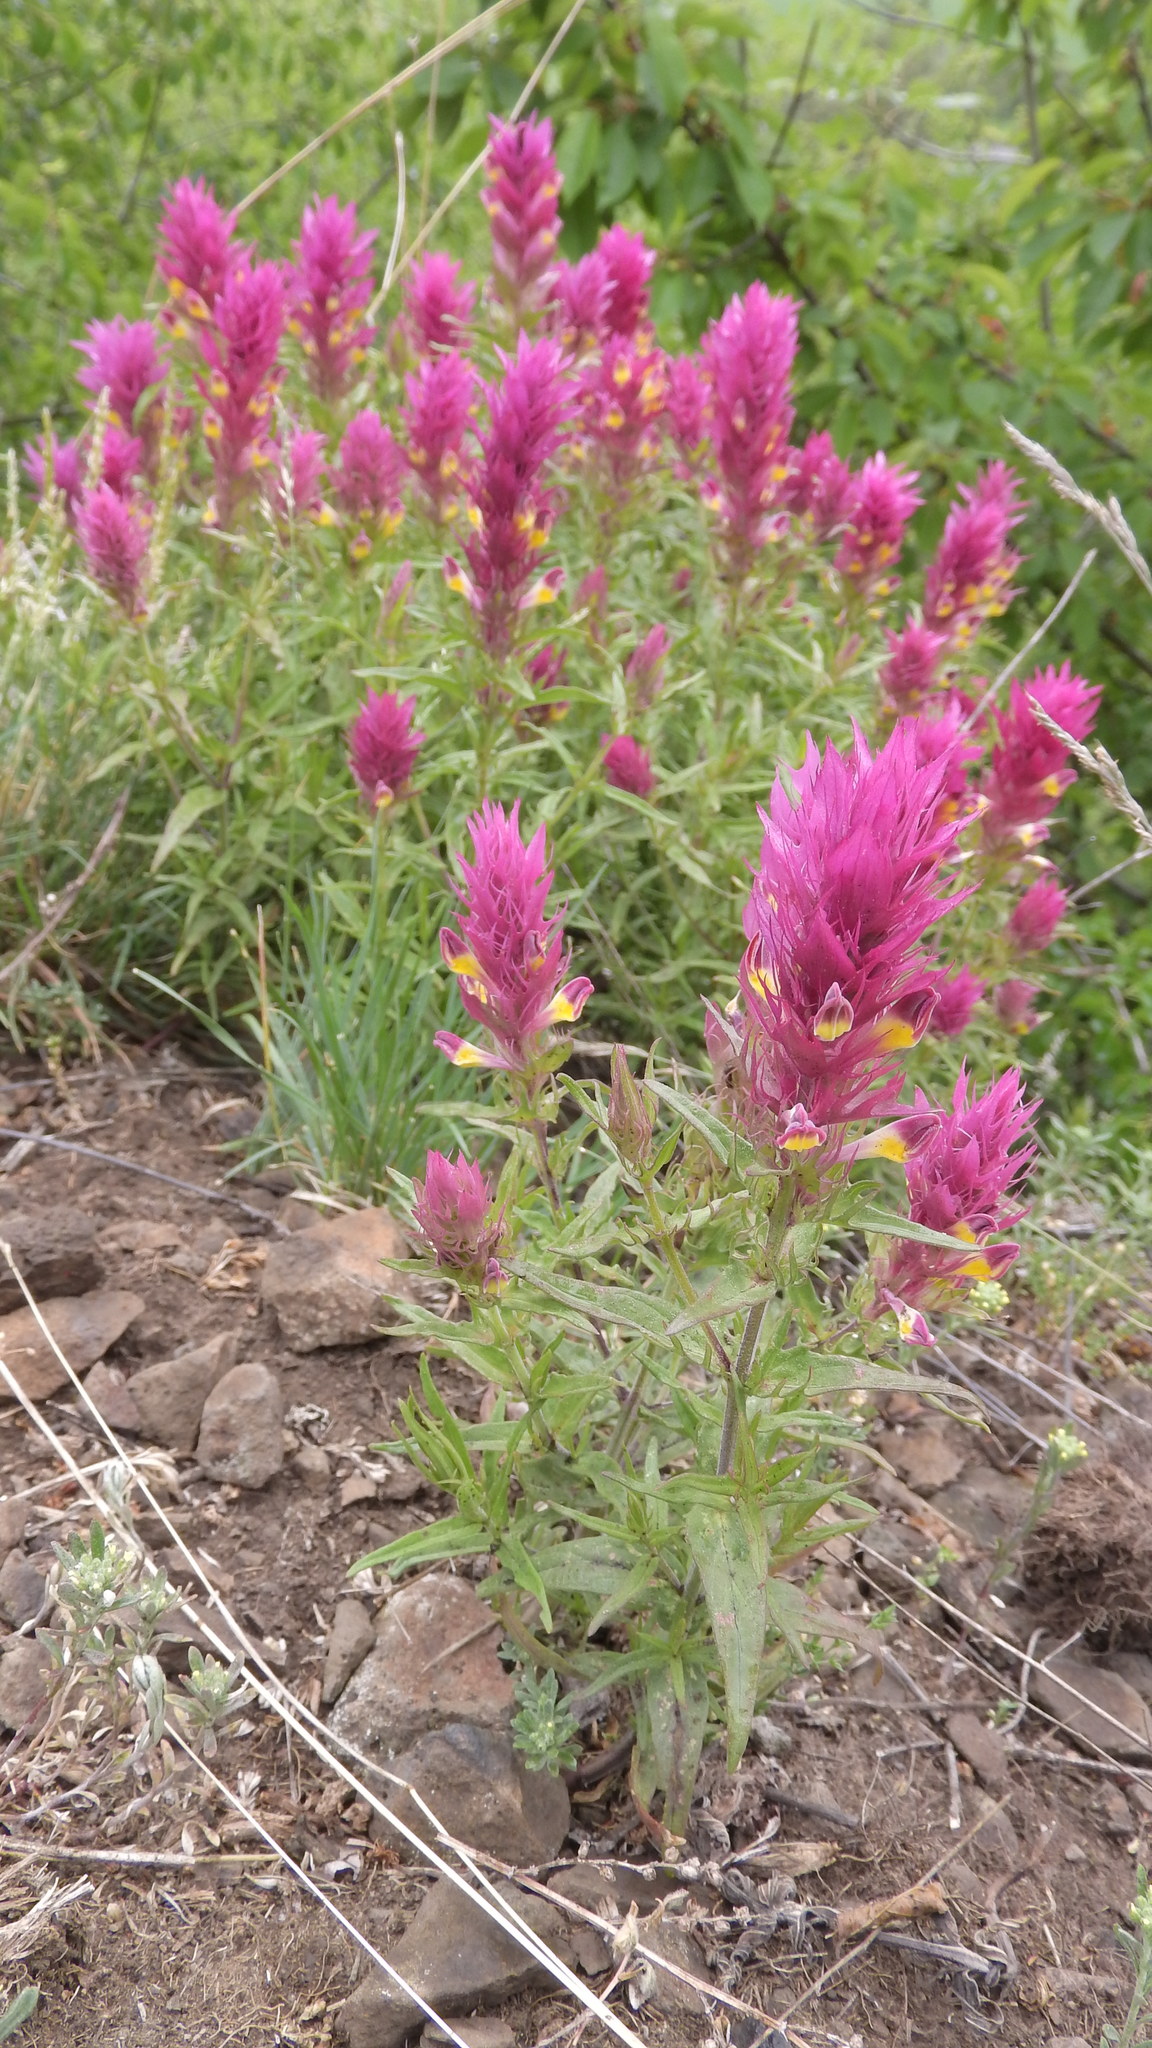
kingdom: Plantae
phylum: Tracheophyta
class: Magnoliopsida
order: Lamiales
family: Orobanchaceae
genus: Melampyrum
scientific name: Melampyrum arvense
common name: Field cow-wheat
